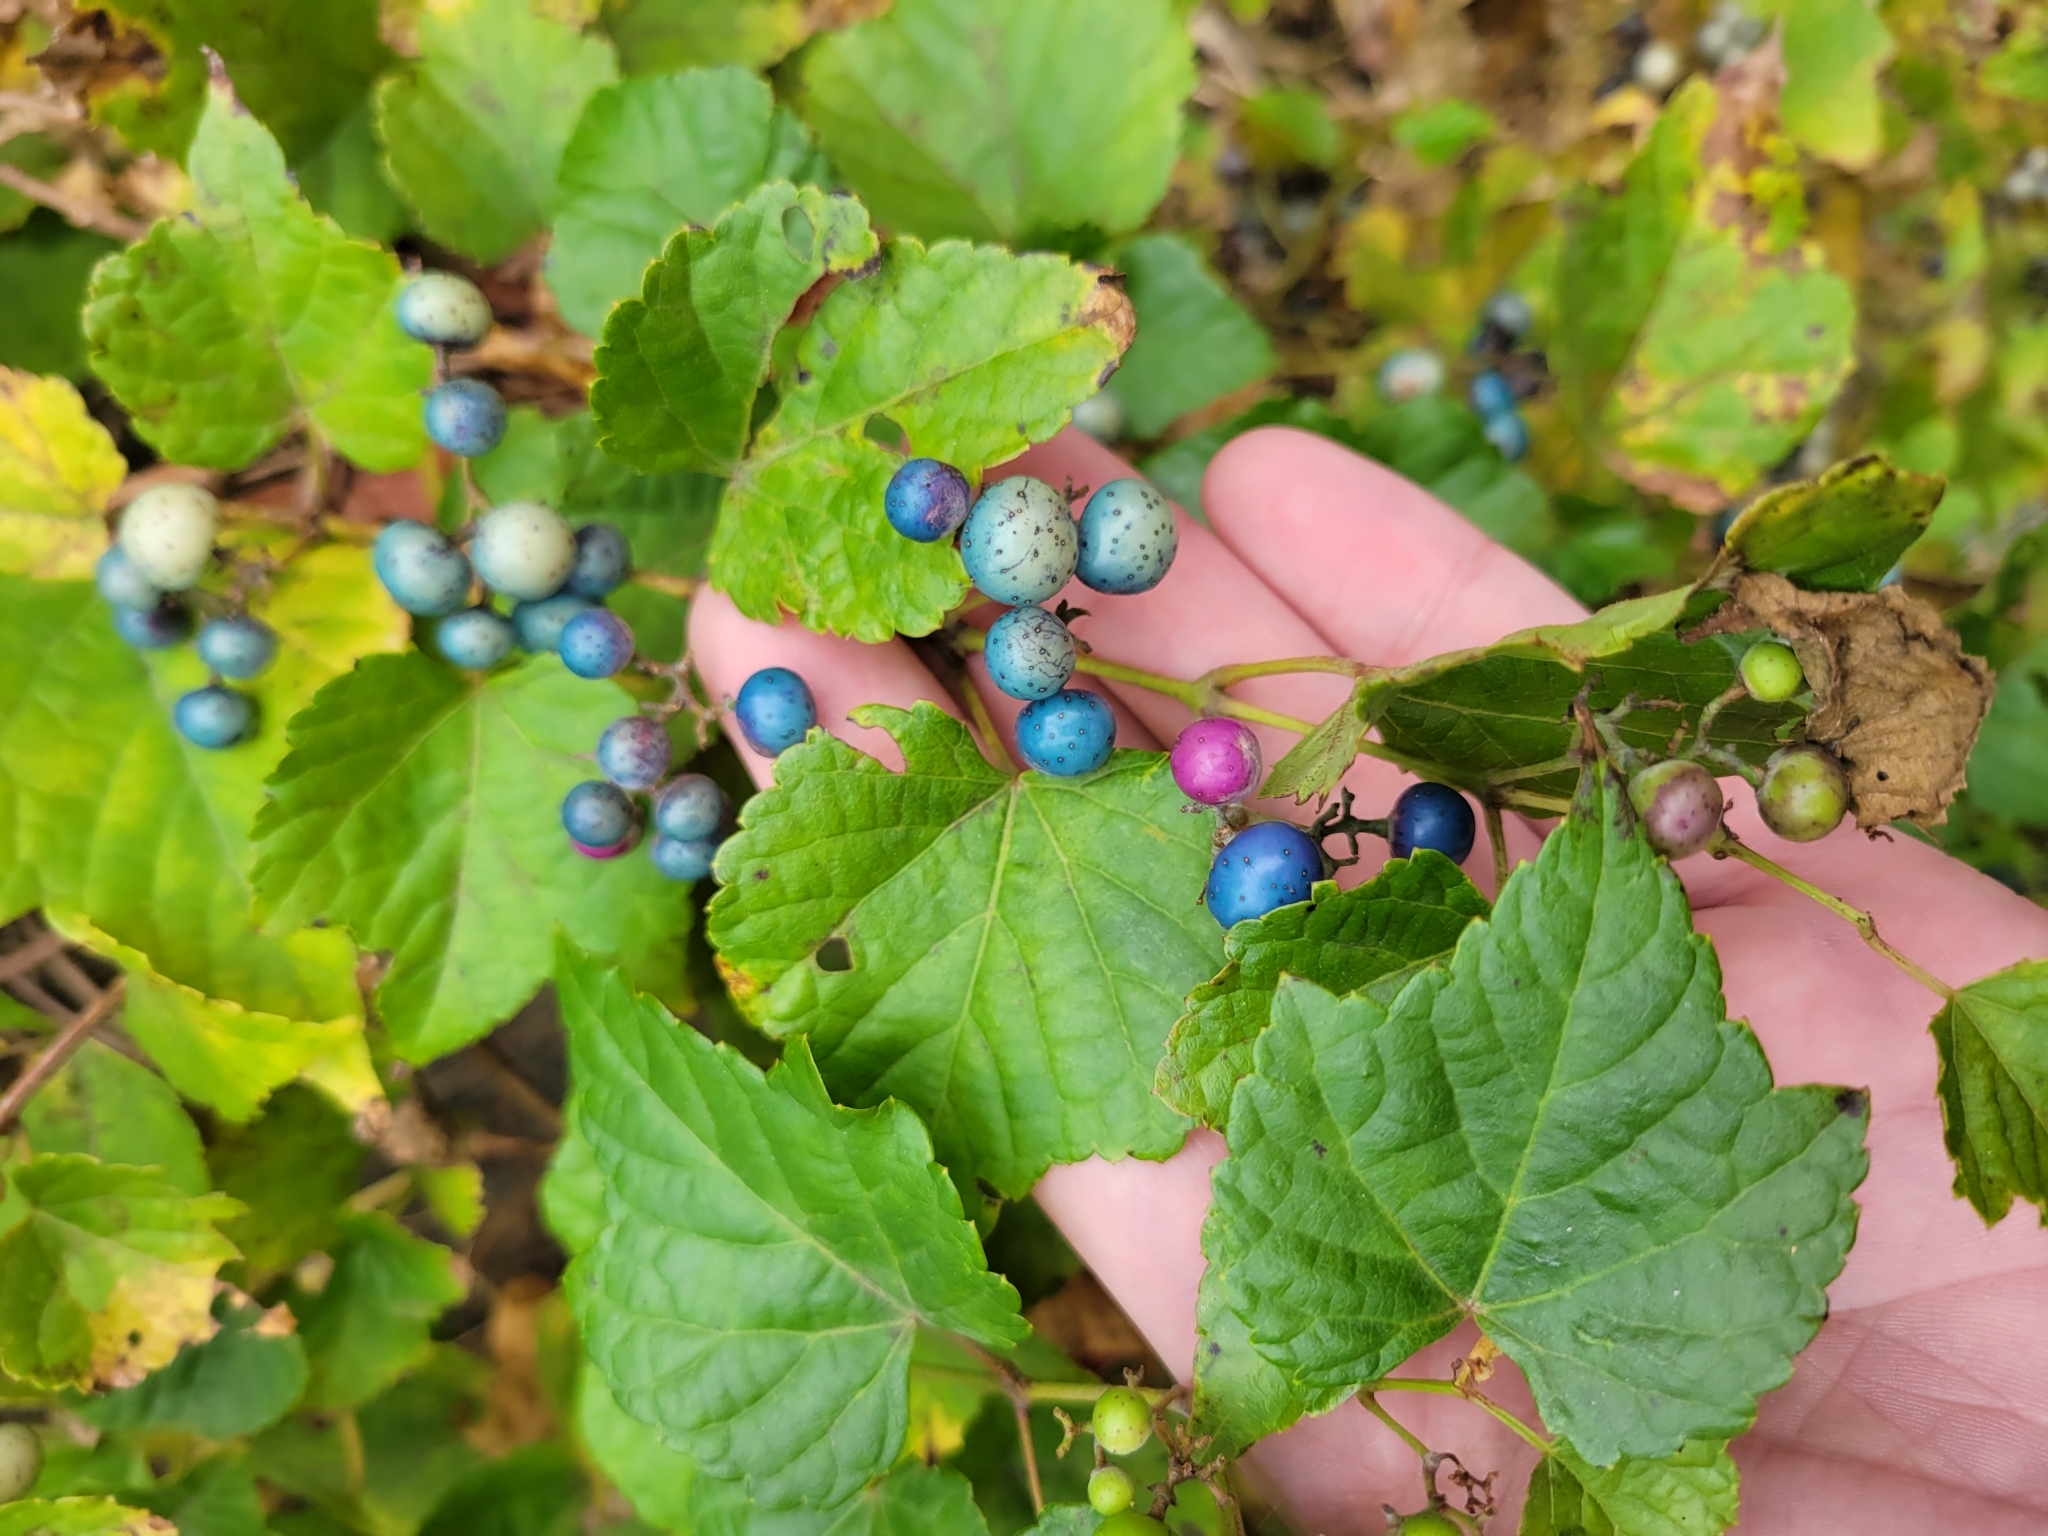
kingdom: Plantae
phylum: Tracheophyta
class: Magnoliopsida
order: Vitales
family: Vitaceae
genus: Ampelopsis
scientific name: Ampelopsis glandulosa
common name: Amur peppervine
